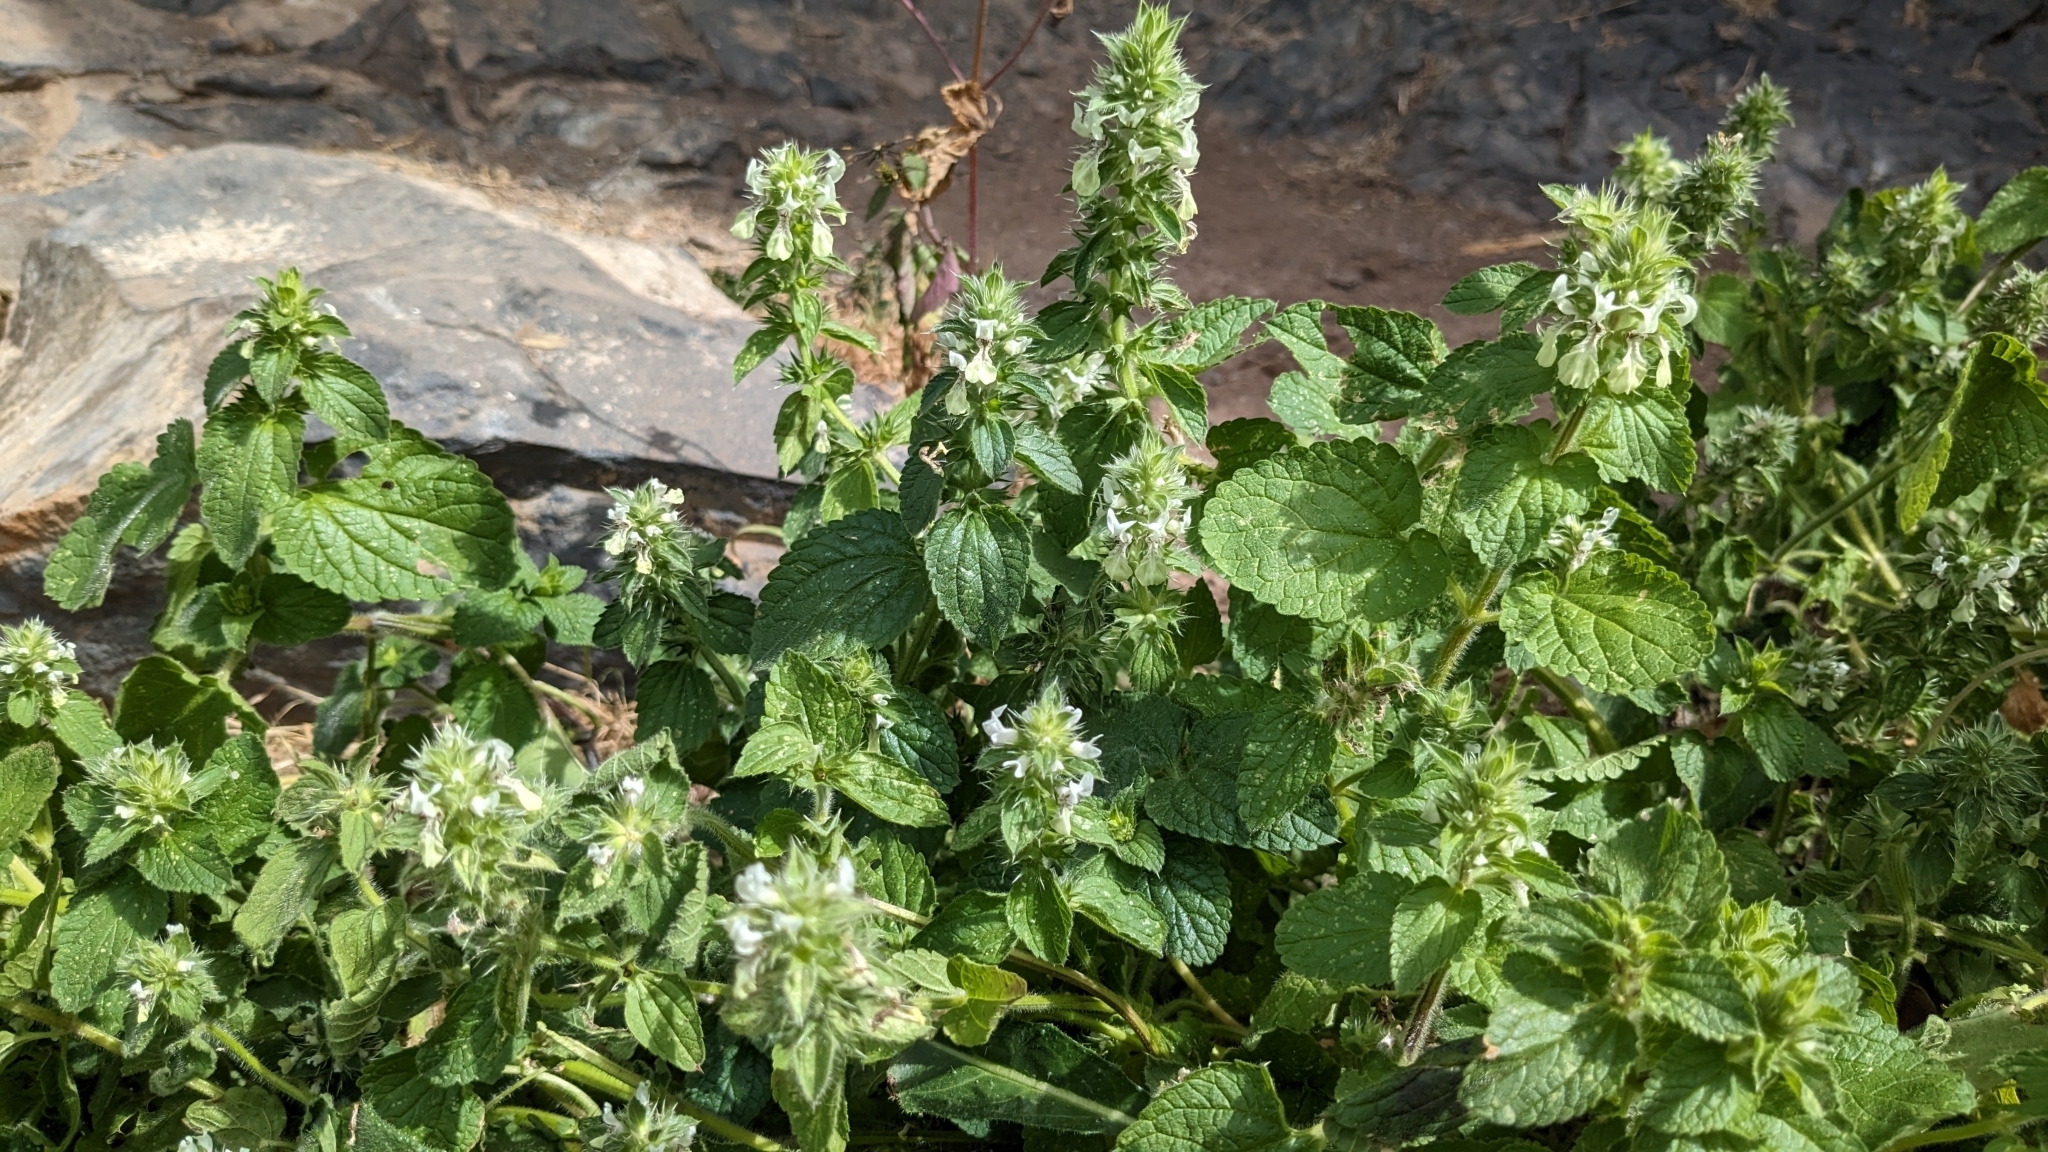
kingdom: Plantae
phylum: Tracheophyta
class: Magnoliopsida
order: Lamiales
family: Lamiaceae
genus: Stachys
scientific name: Stachys ocymastrum
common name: Italian hedgenettle
